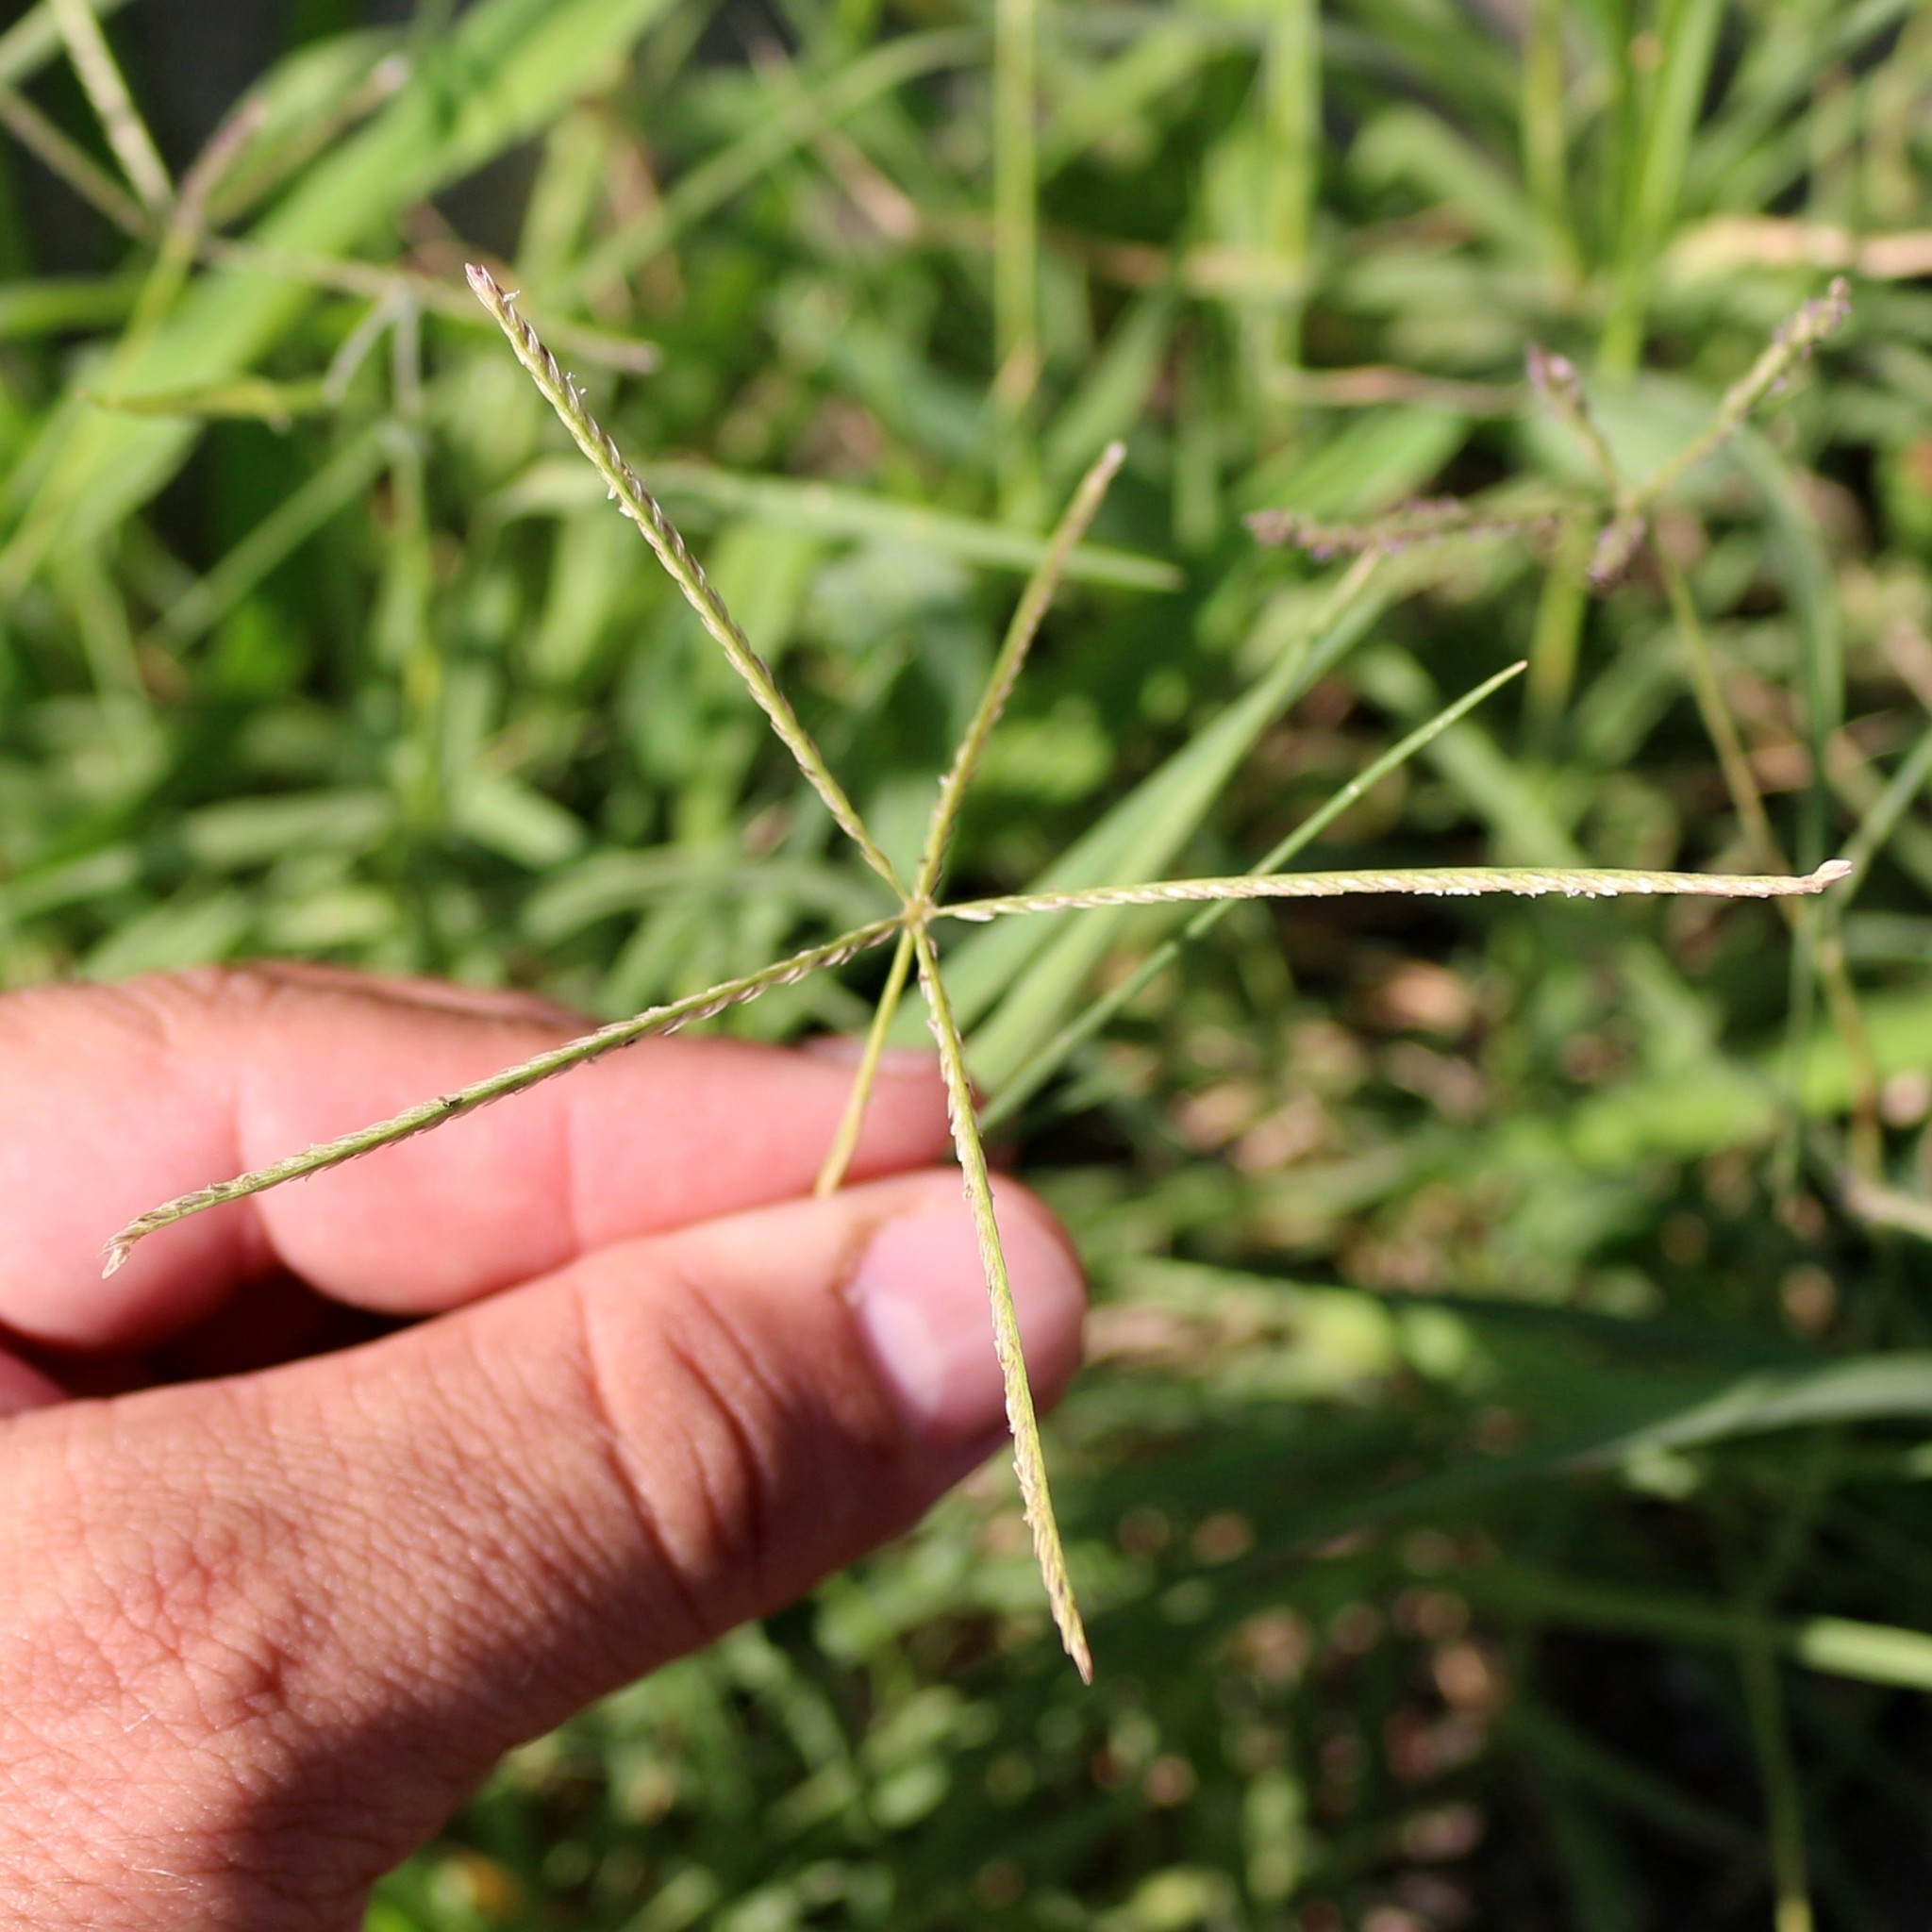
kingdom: Plantae
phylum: Tracheophyta
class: Liliopsida
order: Poales
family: Poaceae
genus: Cynodon
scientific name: Cynodon dactylon
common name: Bermuda grass
